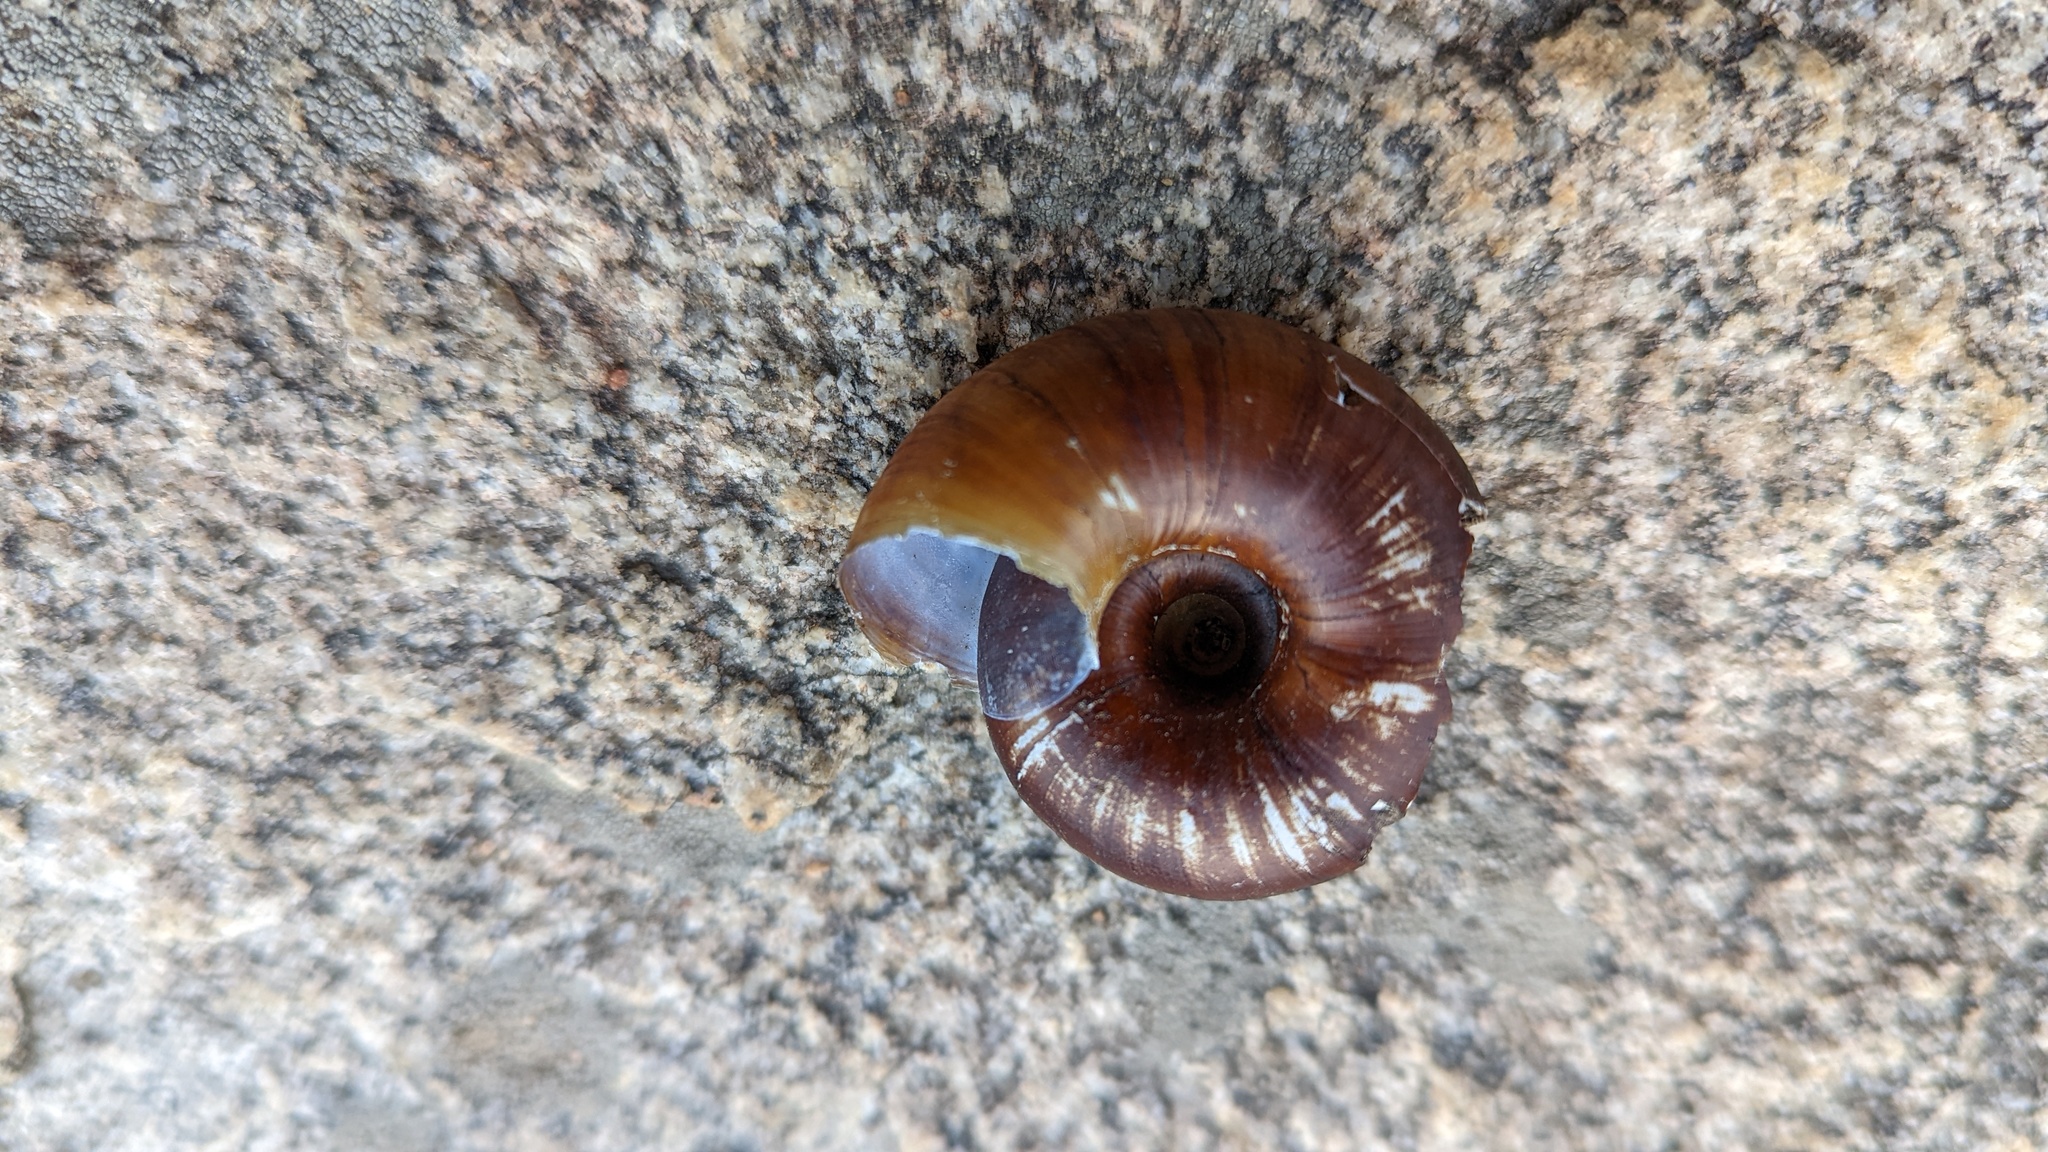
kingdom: Animalia
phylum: Mollusca
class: Gastropoda
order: Stylommatophora
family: Megomphicidae
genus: Glyptostoma
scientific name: Glyptostoma newberryanum
